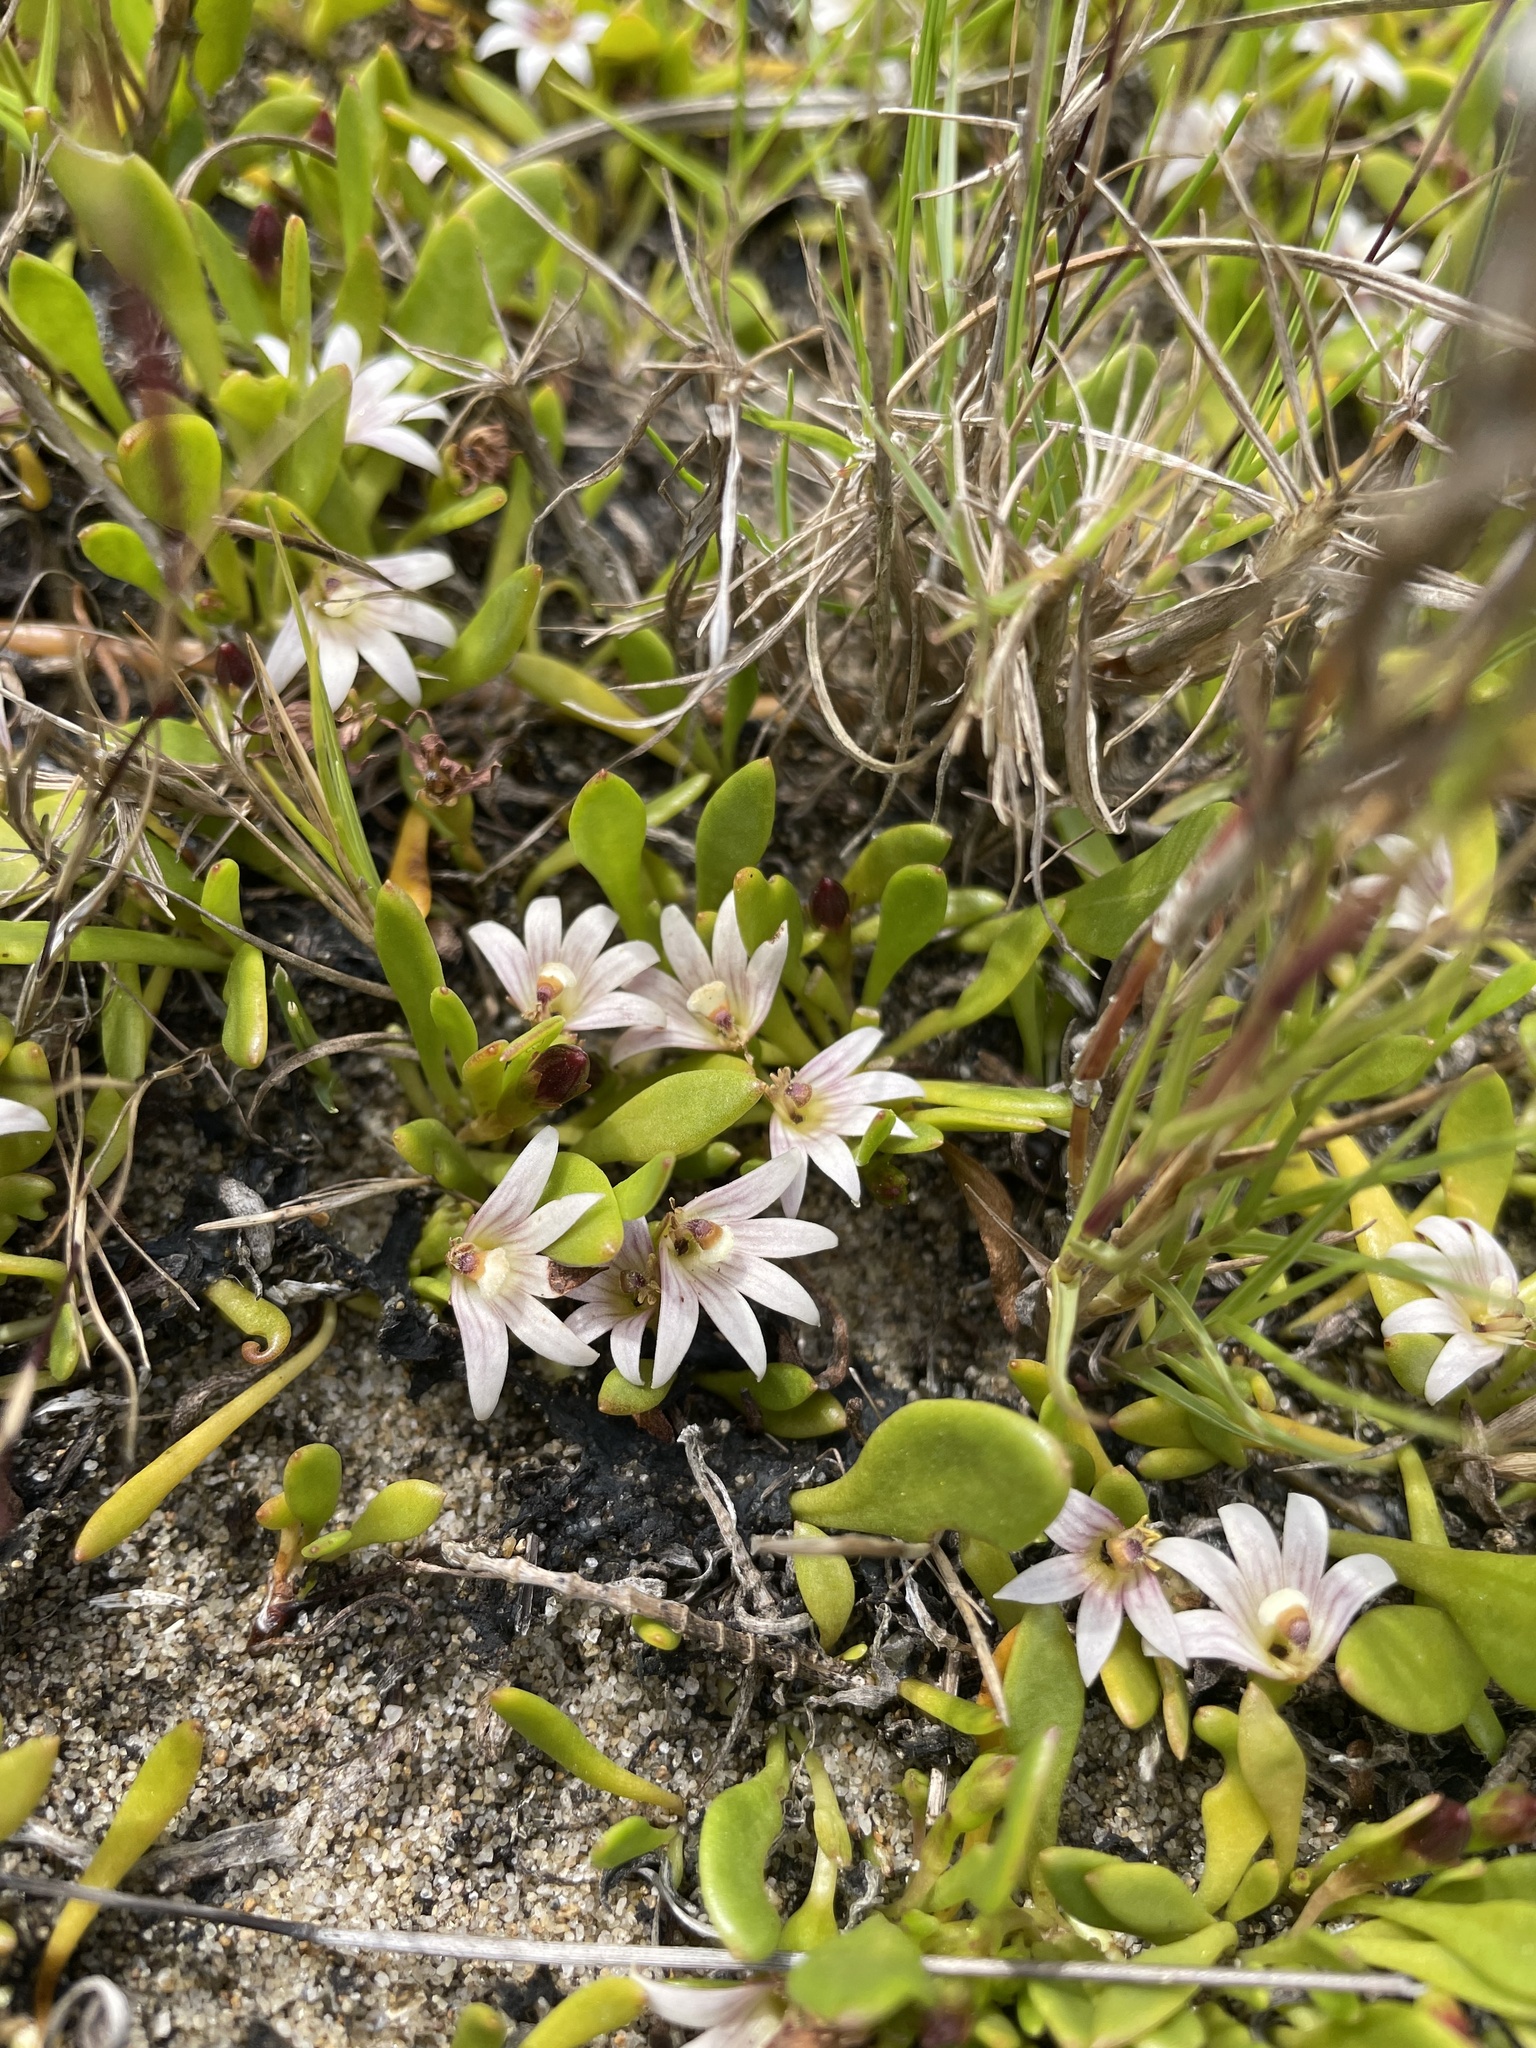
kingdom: Plantae
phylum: Tracheophyta
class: Magnoliopsida
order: Asterales
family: Goodeniaceae
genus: Goodenia
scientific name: Goodenia radicans
